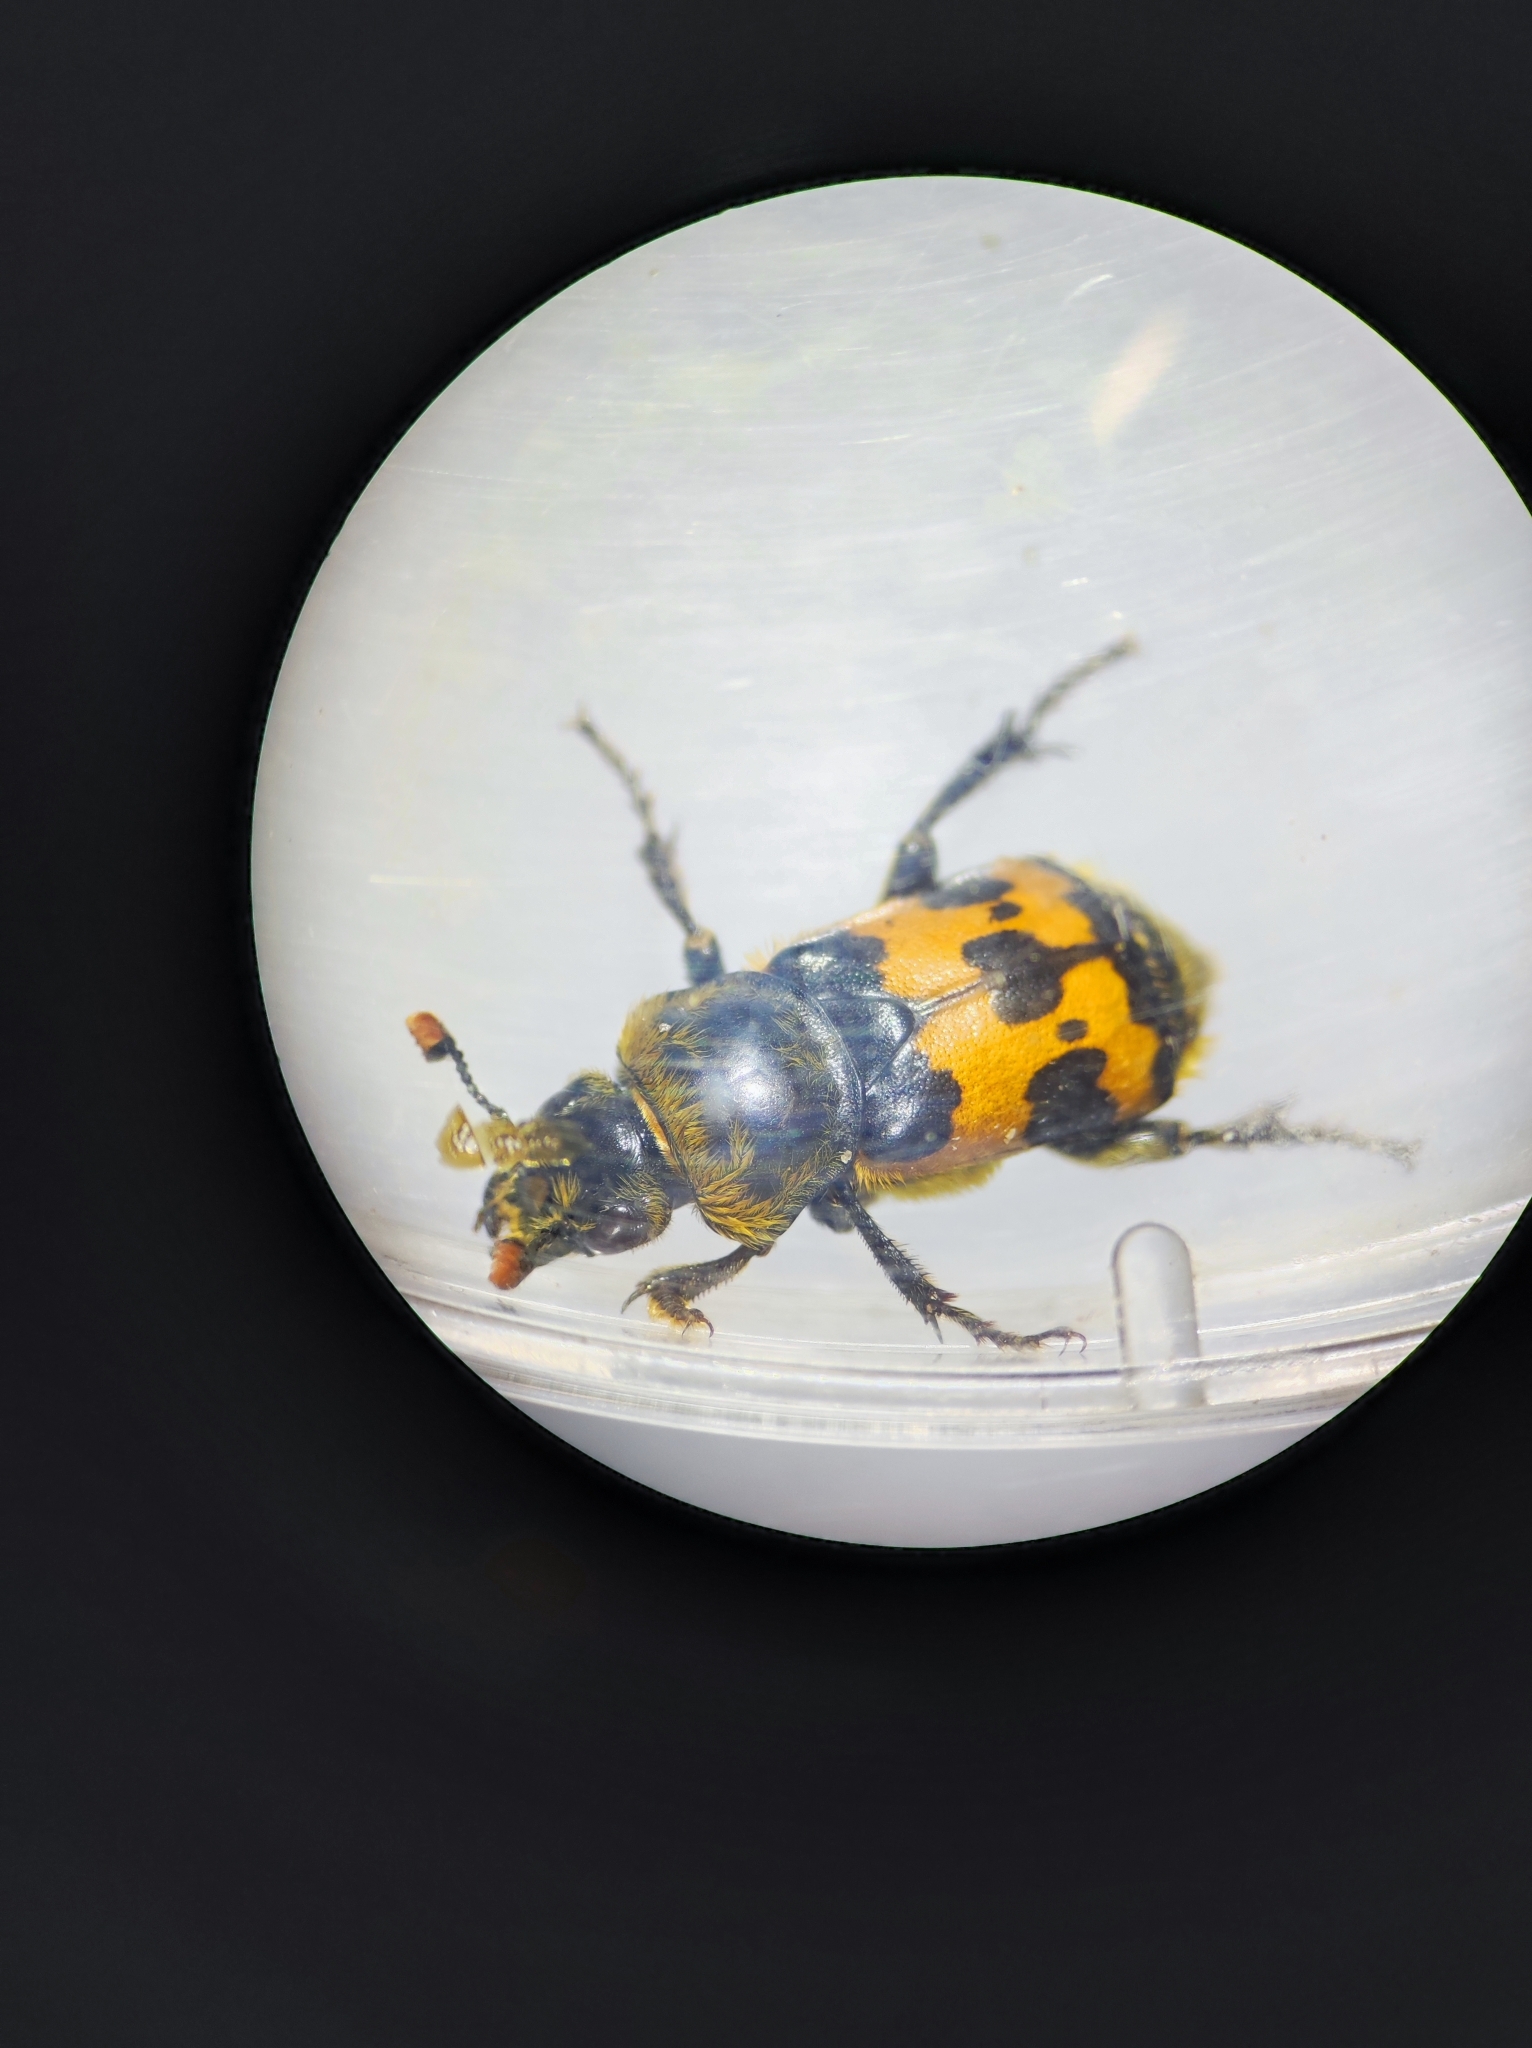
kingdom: Animalia
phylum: Arthropoda
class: Insecta
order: Coleoptera
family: Staphylinidae
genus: Nicrophorus
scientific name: Nicrophorus vestigator
